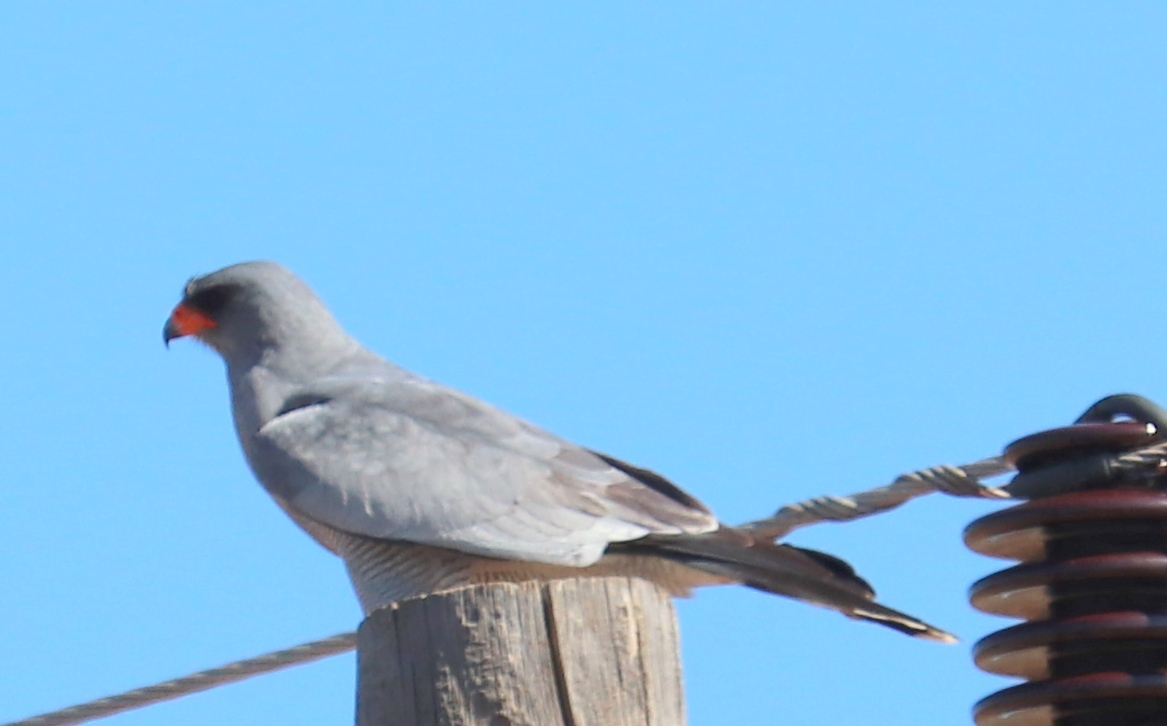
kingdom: Animalia
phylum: Chordata
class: Aves
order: Accipitriformes
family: Accipitridae
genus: Melierax
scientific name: Melierax canorus
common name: Pale chanting-goshawk
